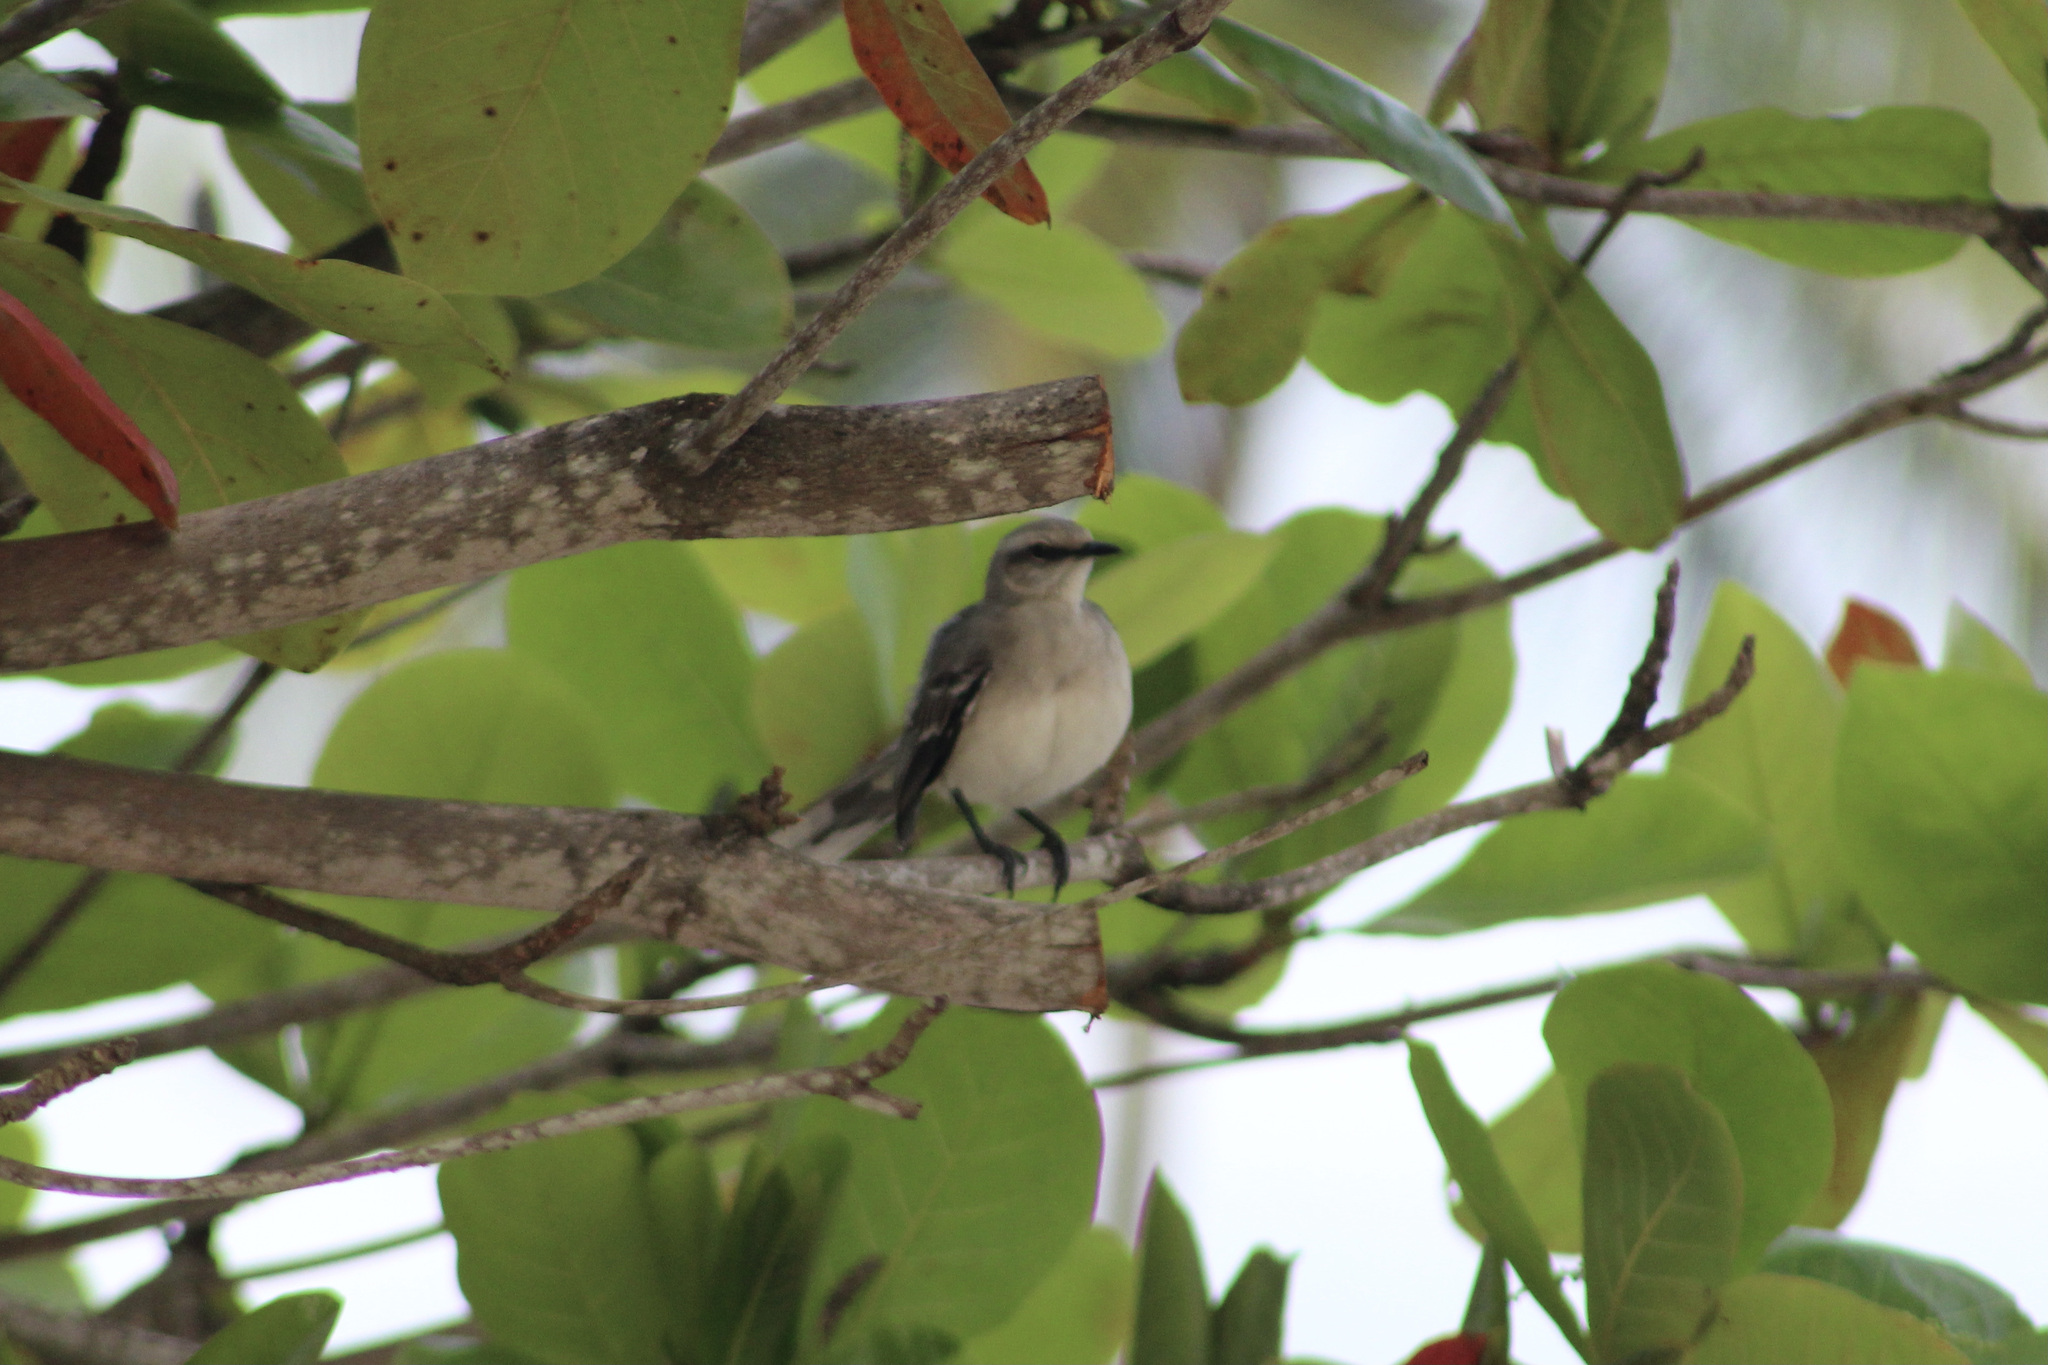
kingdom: Animalia
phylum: Chordata
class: Aves
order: Passeriformes
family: Mimidae
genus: Mimus
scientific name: Mimus gilvus
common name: Tropical mockingbird
